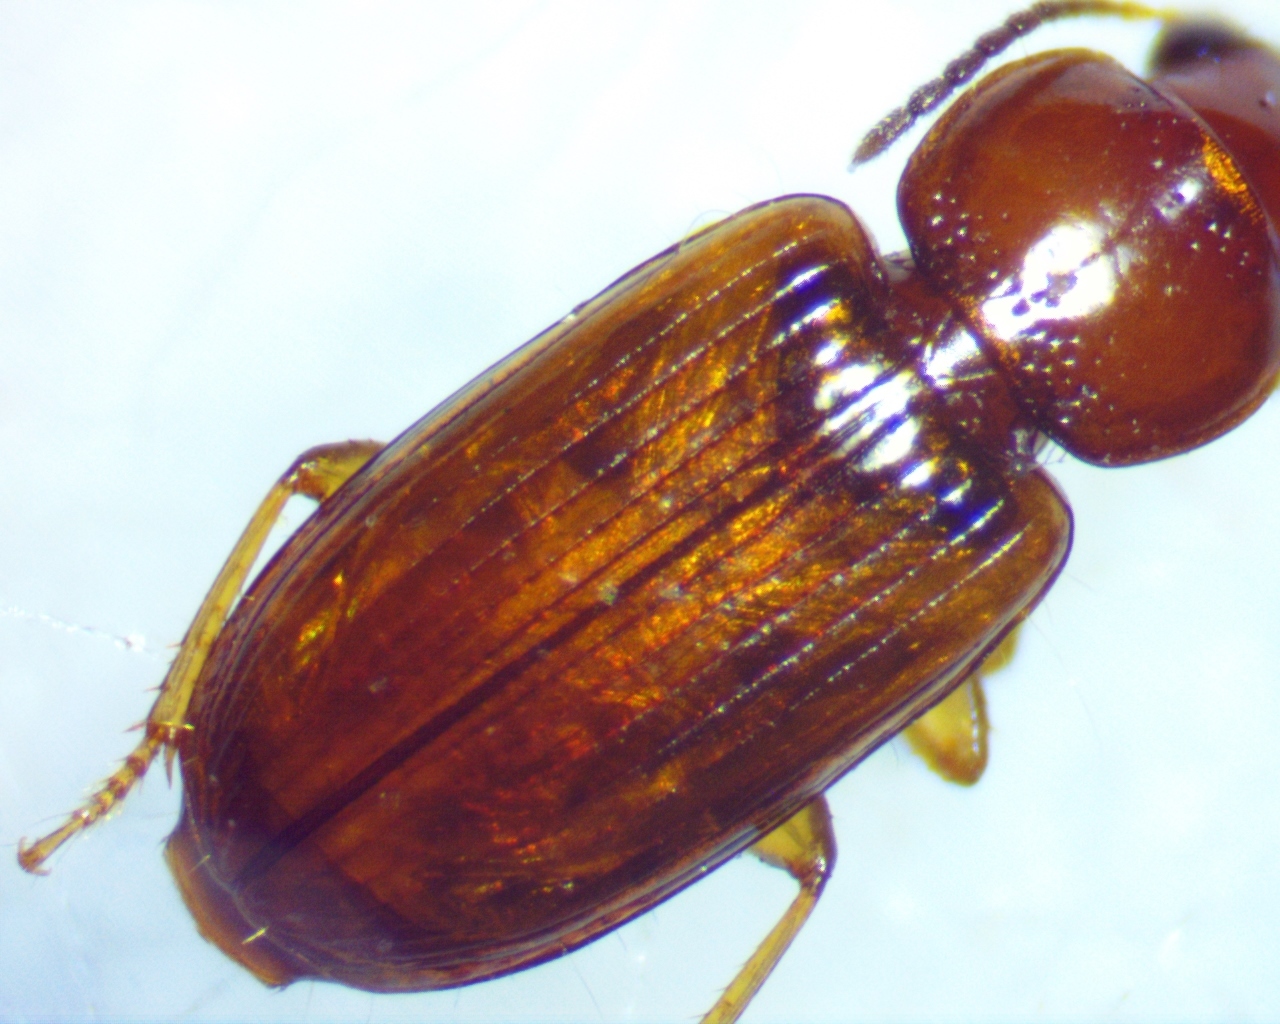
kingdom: Animalia
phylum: Arthropoda
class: Insecta
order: Coleoptera
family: Carabidae
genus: Acupalpus
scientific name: Acupalpus testaceus
